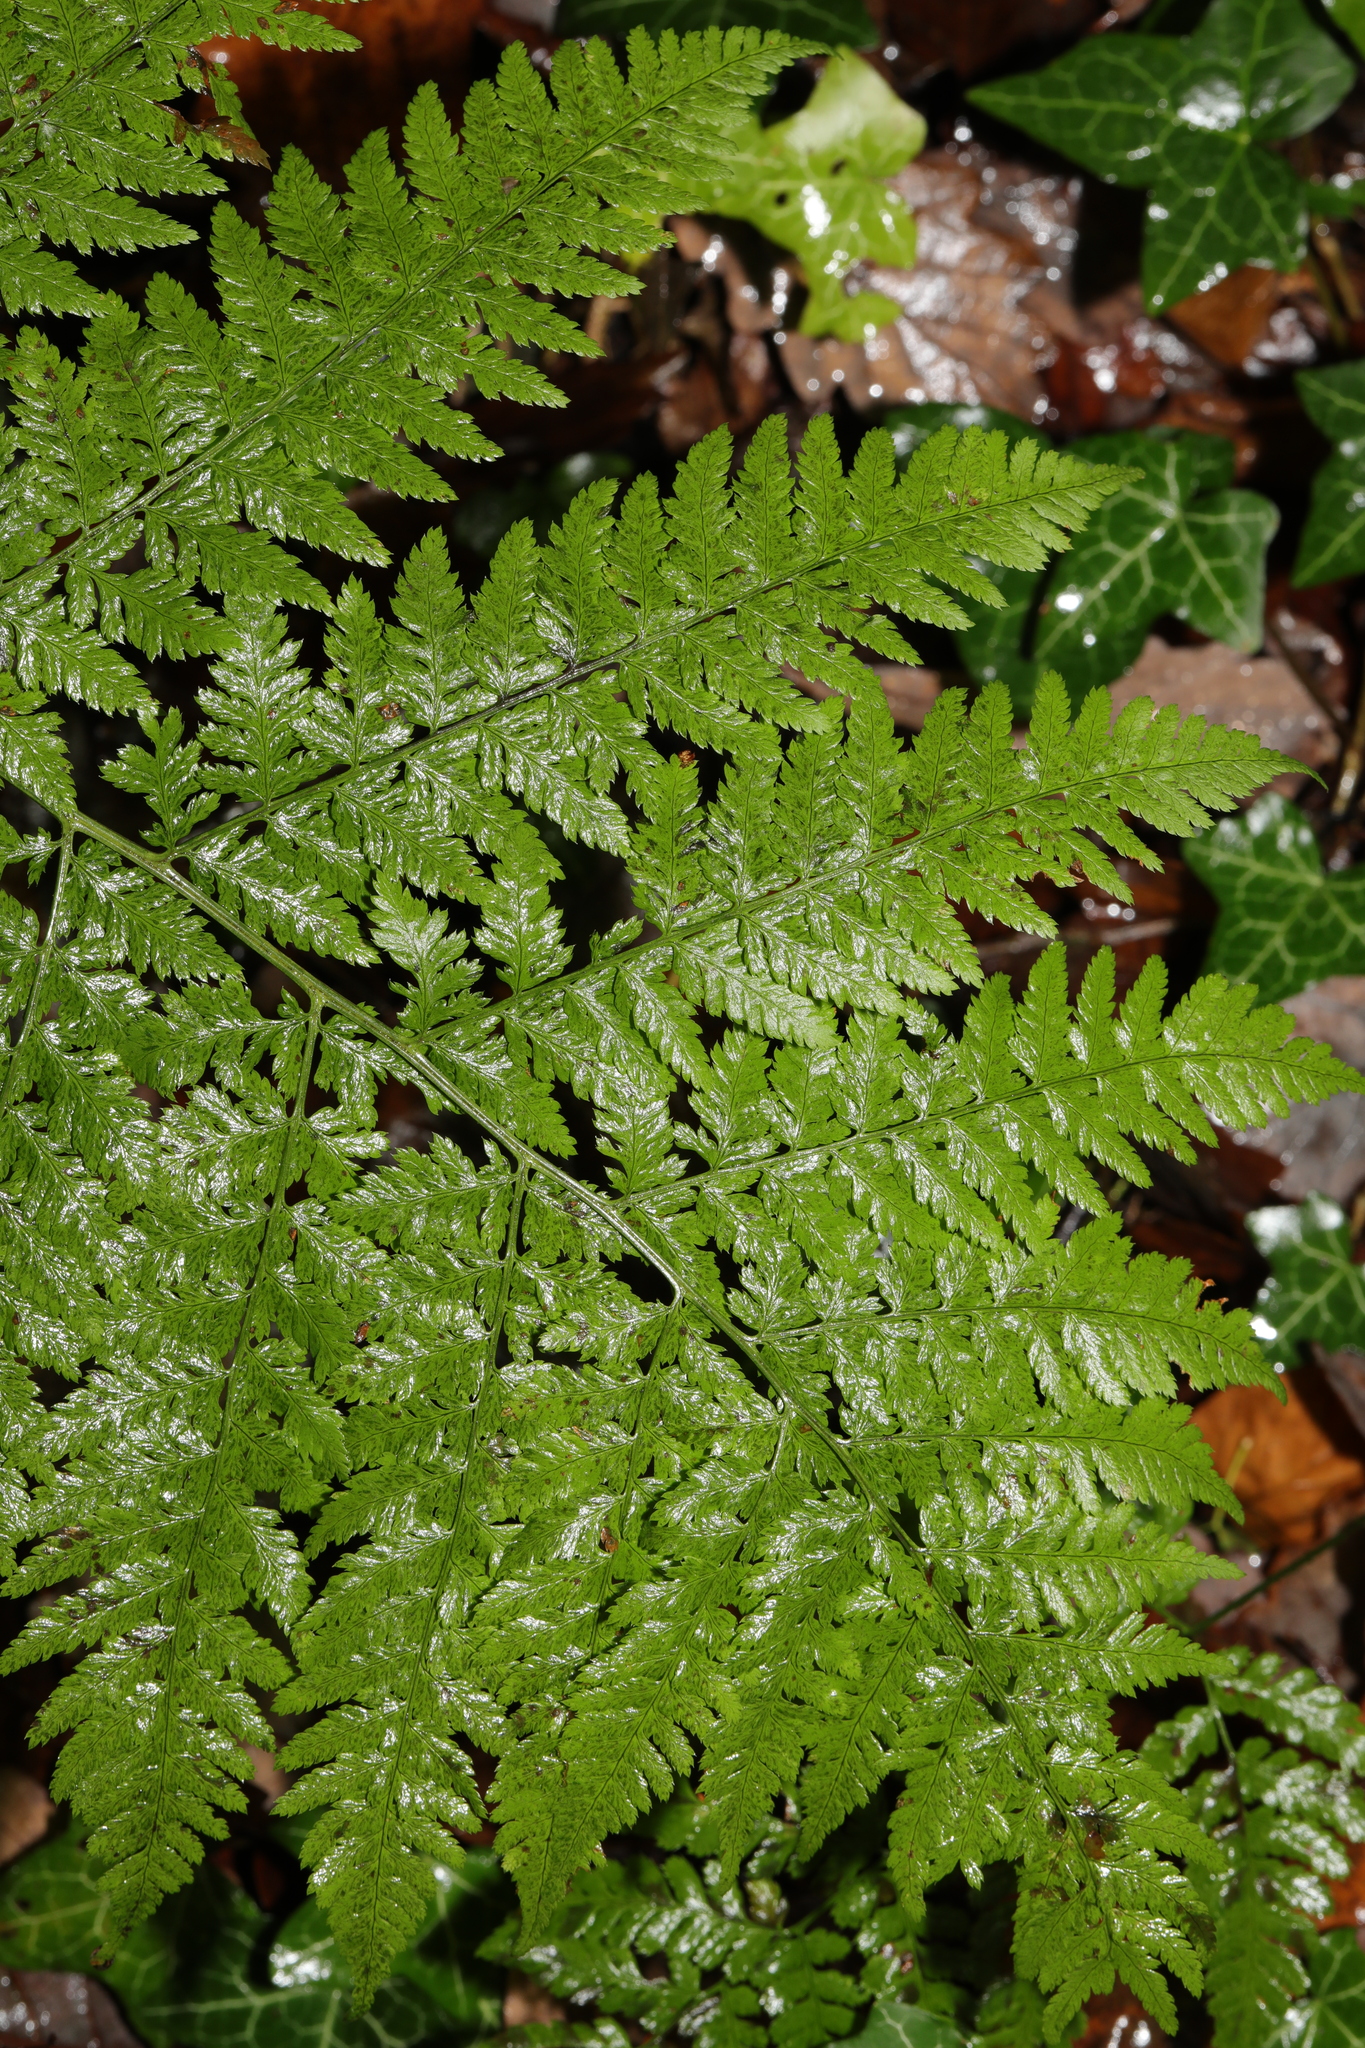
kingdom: Plantae
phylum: Tracheophyta
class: Polypodiopsida
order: Polypodiales
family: Dryopteridaceae
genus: Dryopteris
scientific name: Dryopteris dilatata
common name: Broad buckler-fern
